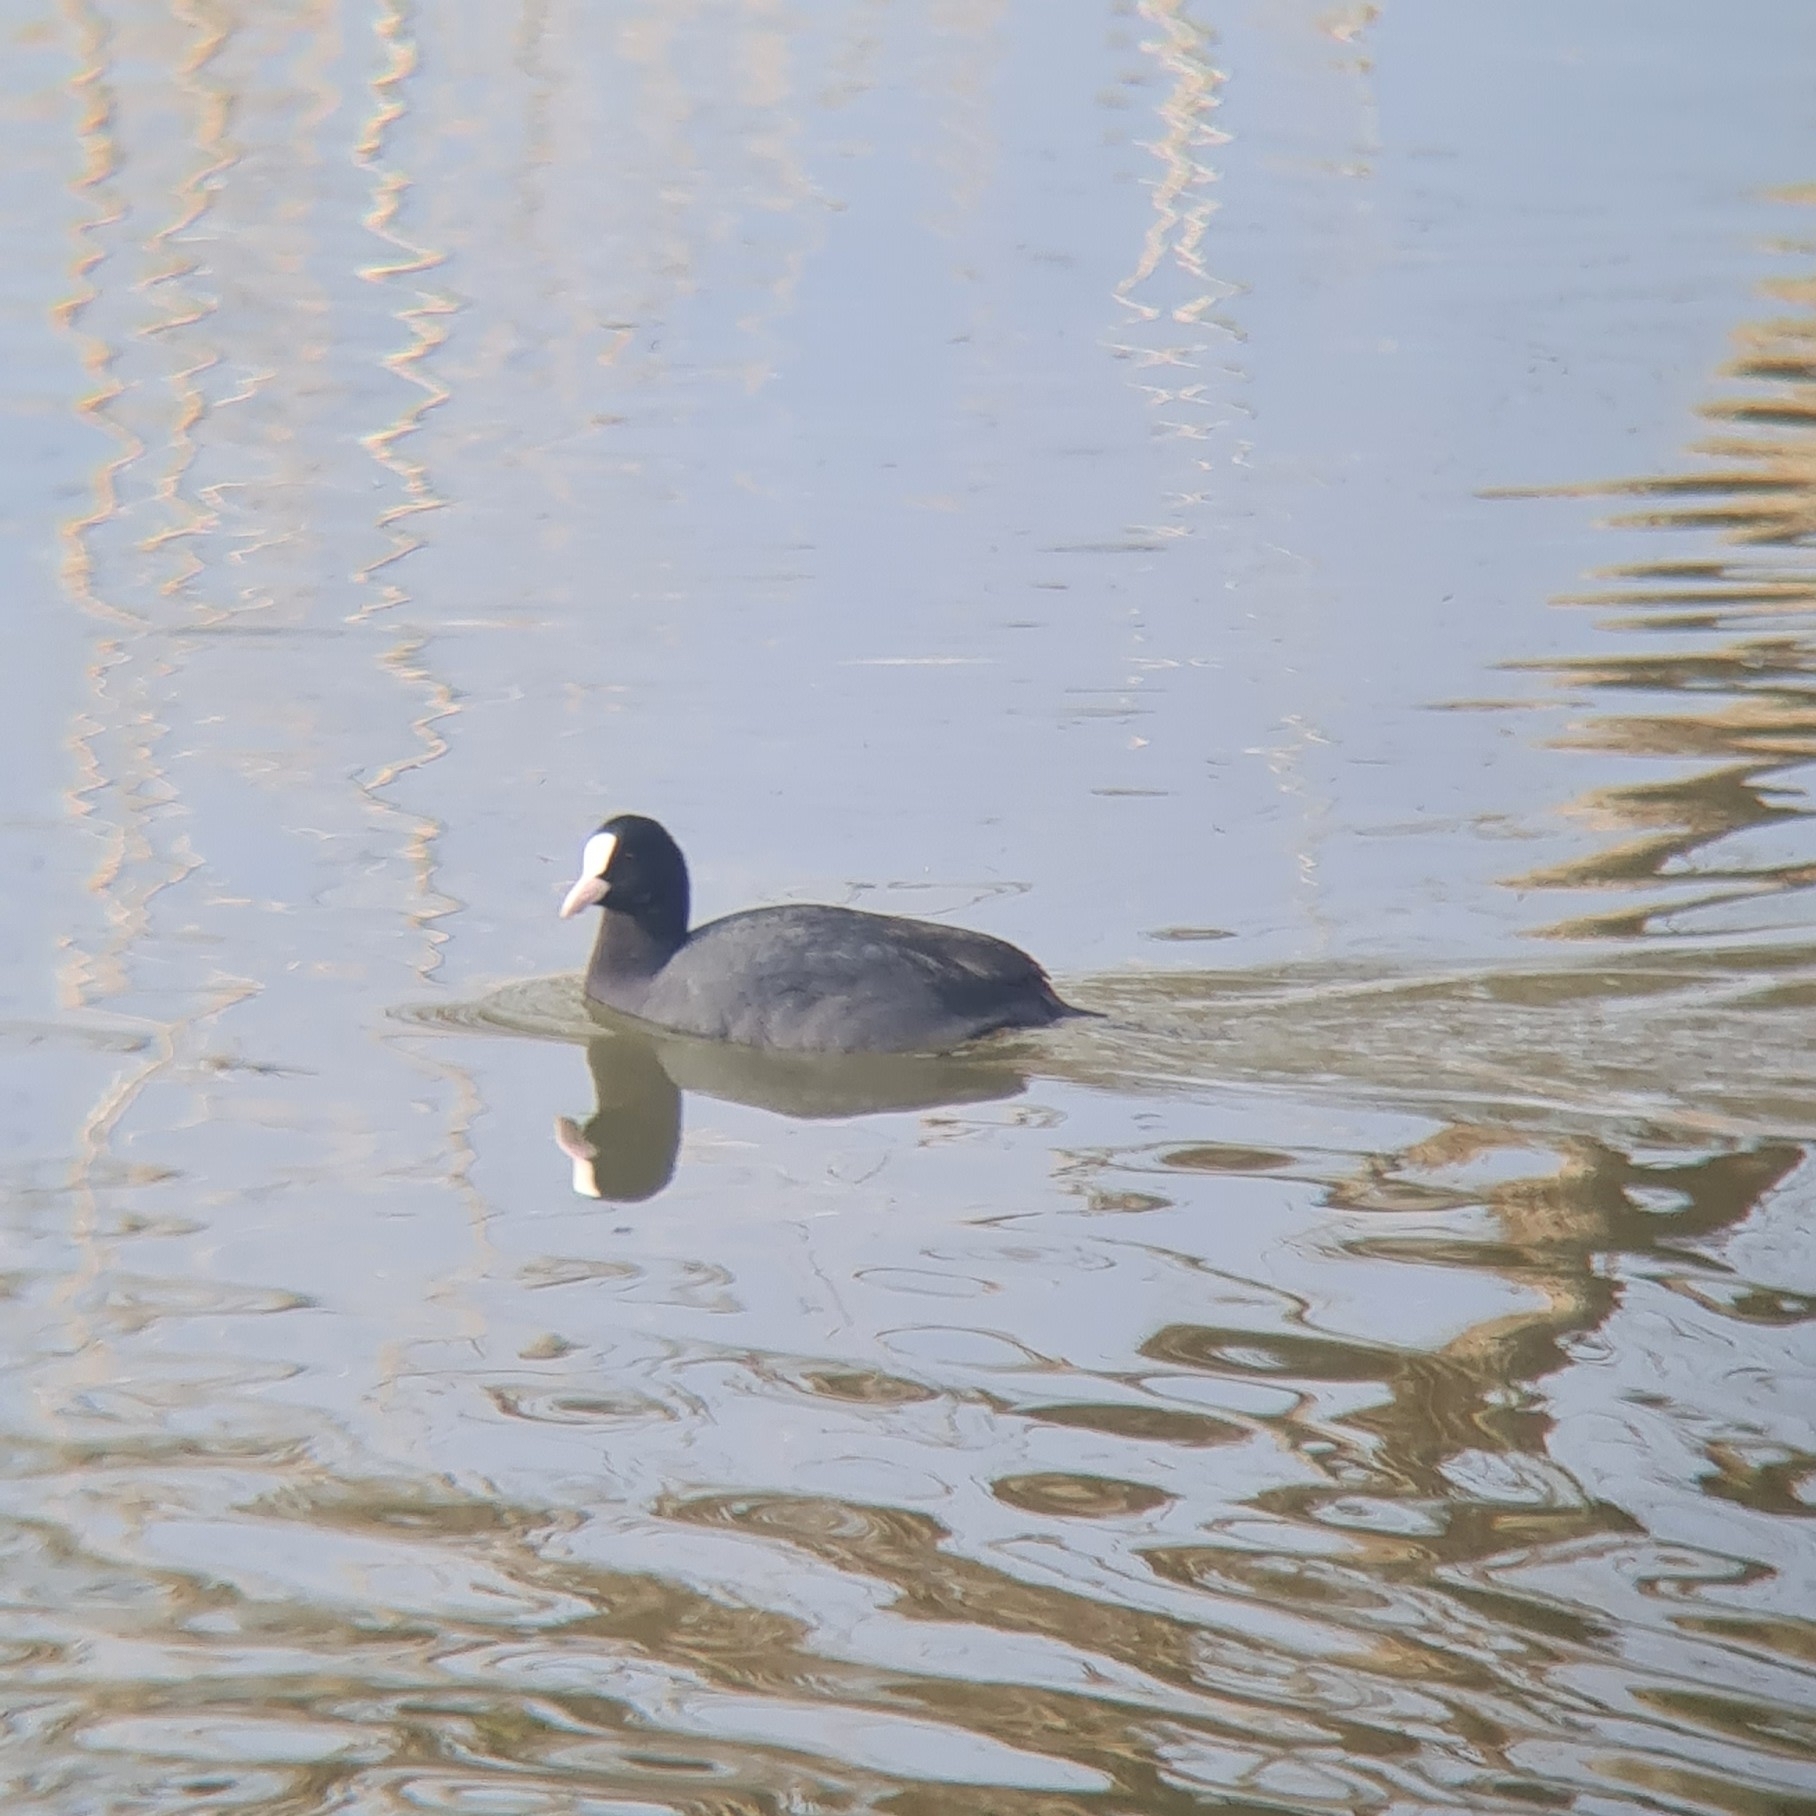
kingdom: Animalia
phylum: Chordata
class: Aves
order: Gruiformes
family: Rallidae
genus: Fulica
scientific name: Fulica atra
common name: Eurasian coot
